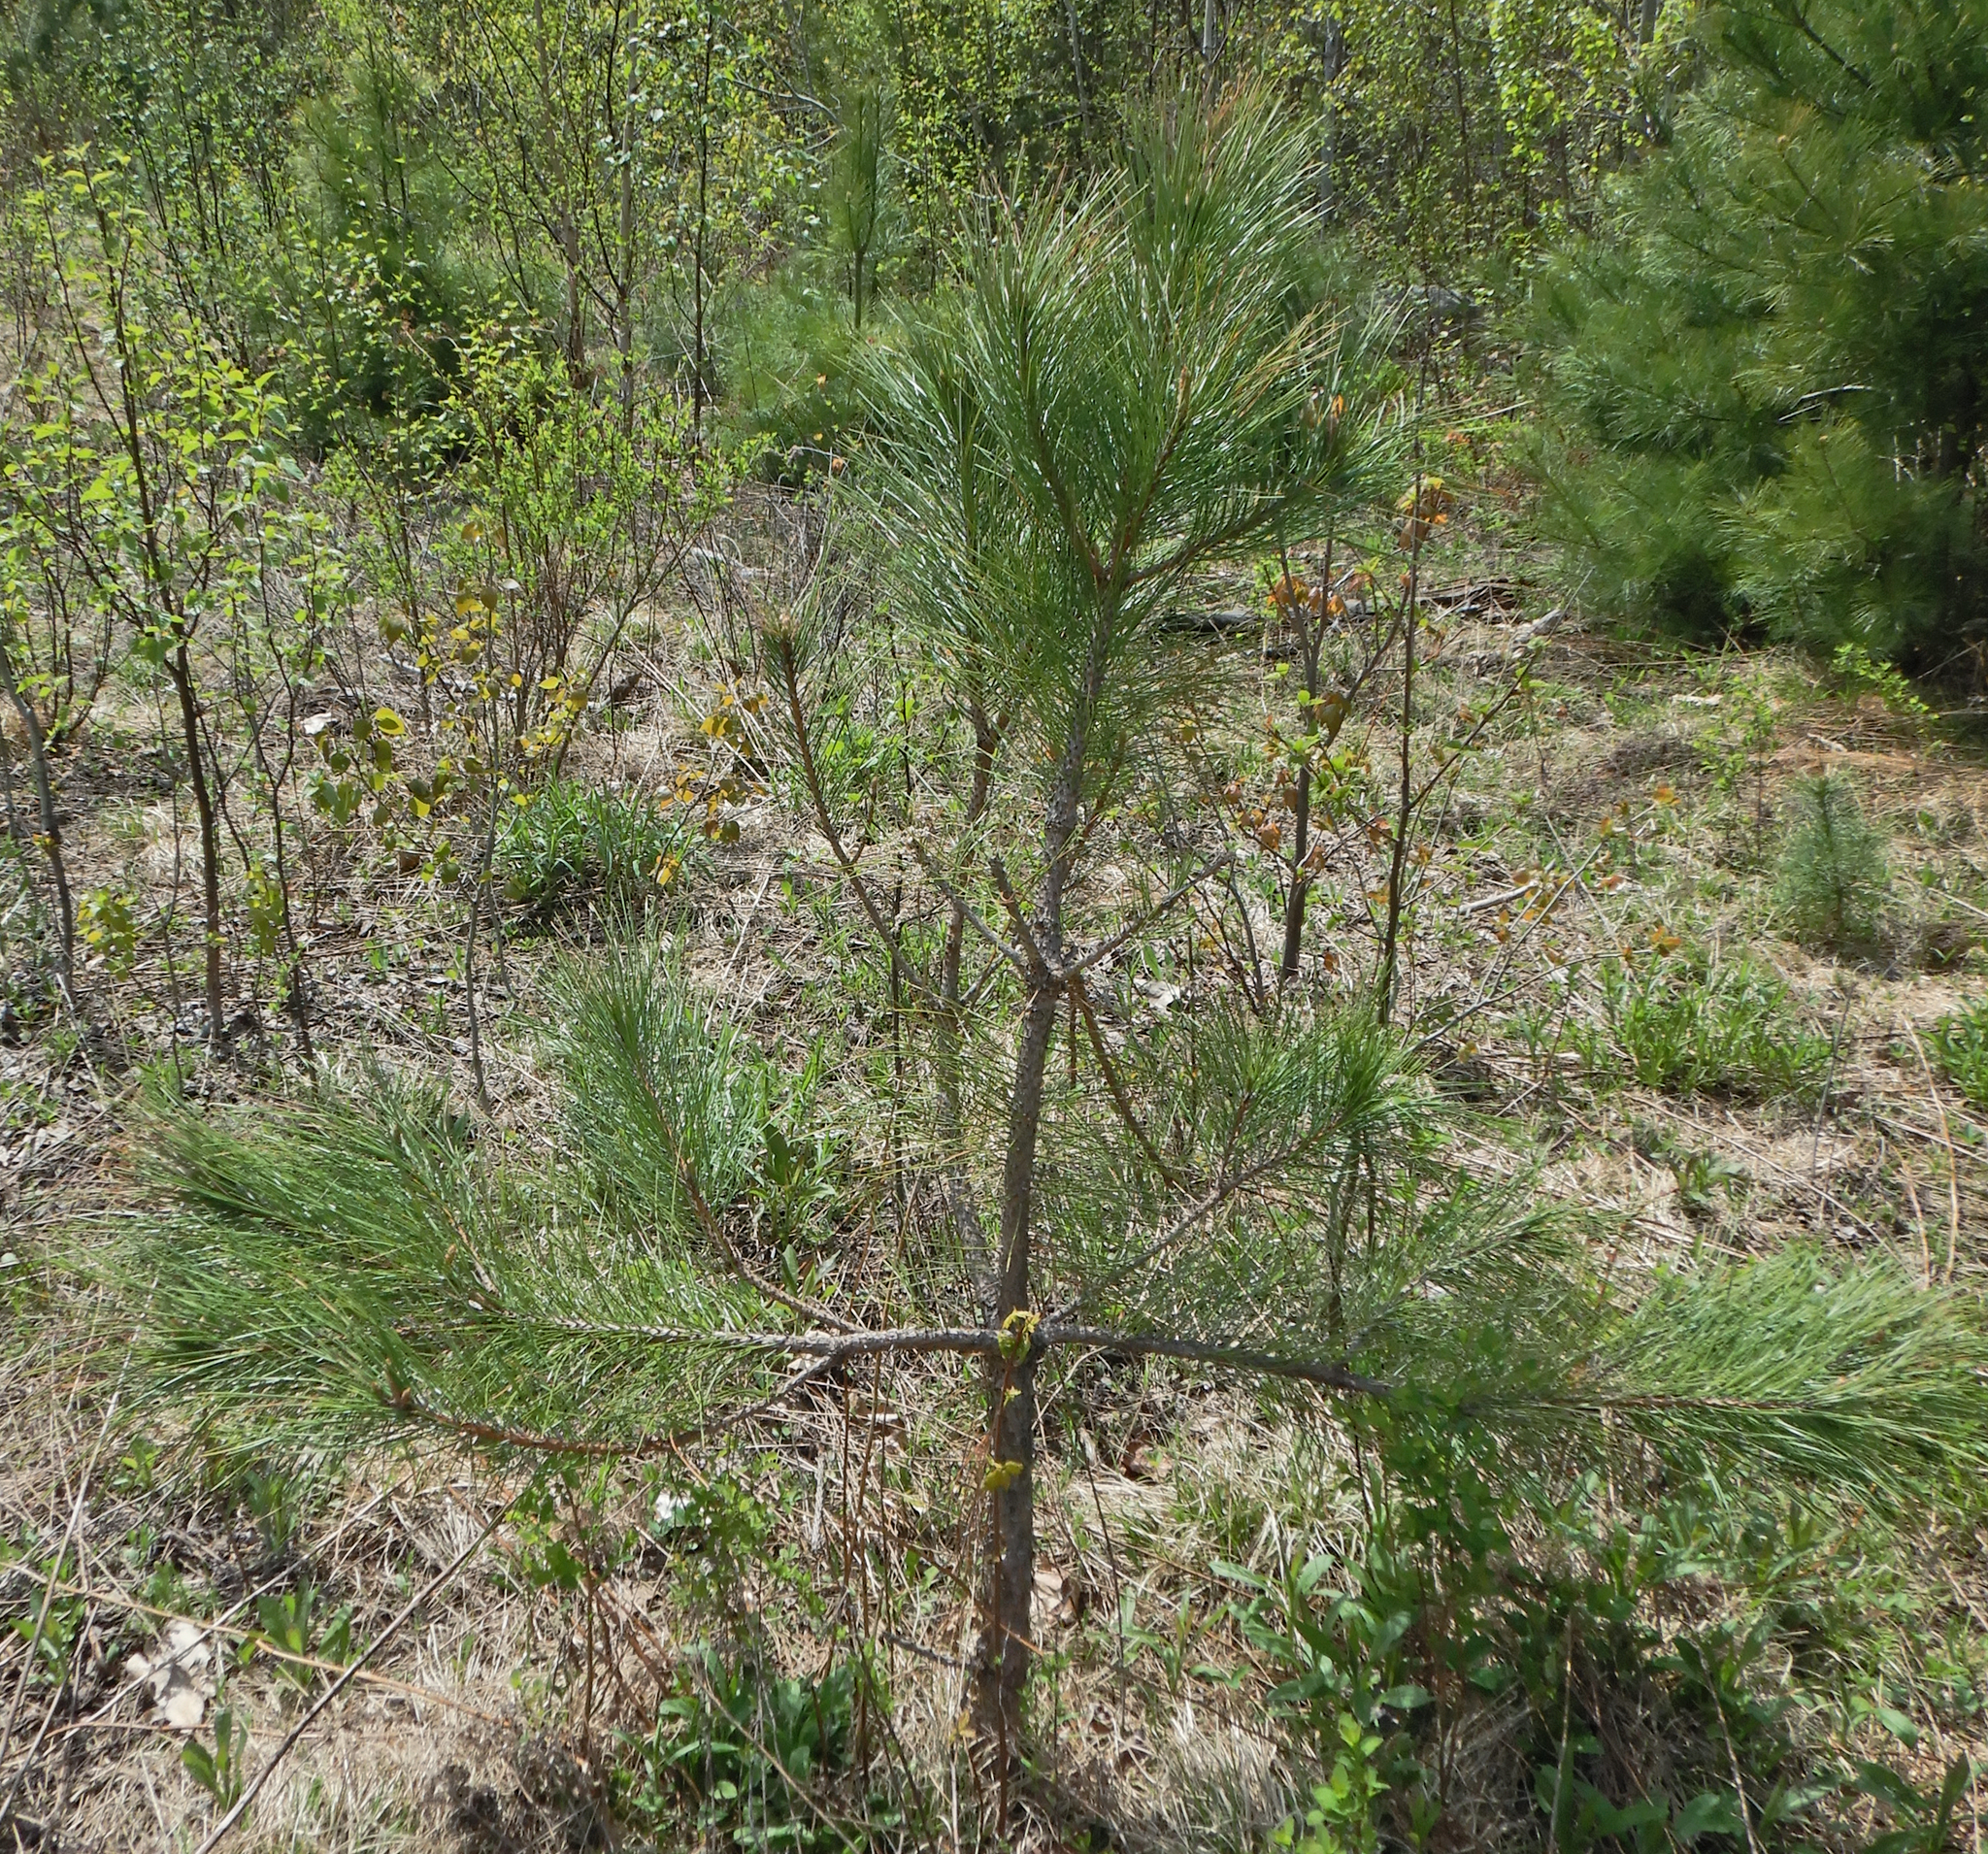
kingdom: Plantae
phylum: Tracheophyta
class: Pinopsida
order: Pinales
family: Pinaceae
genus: Pinus
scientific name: Pinus resinosa
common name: Norway pine
